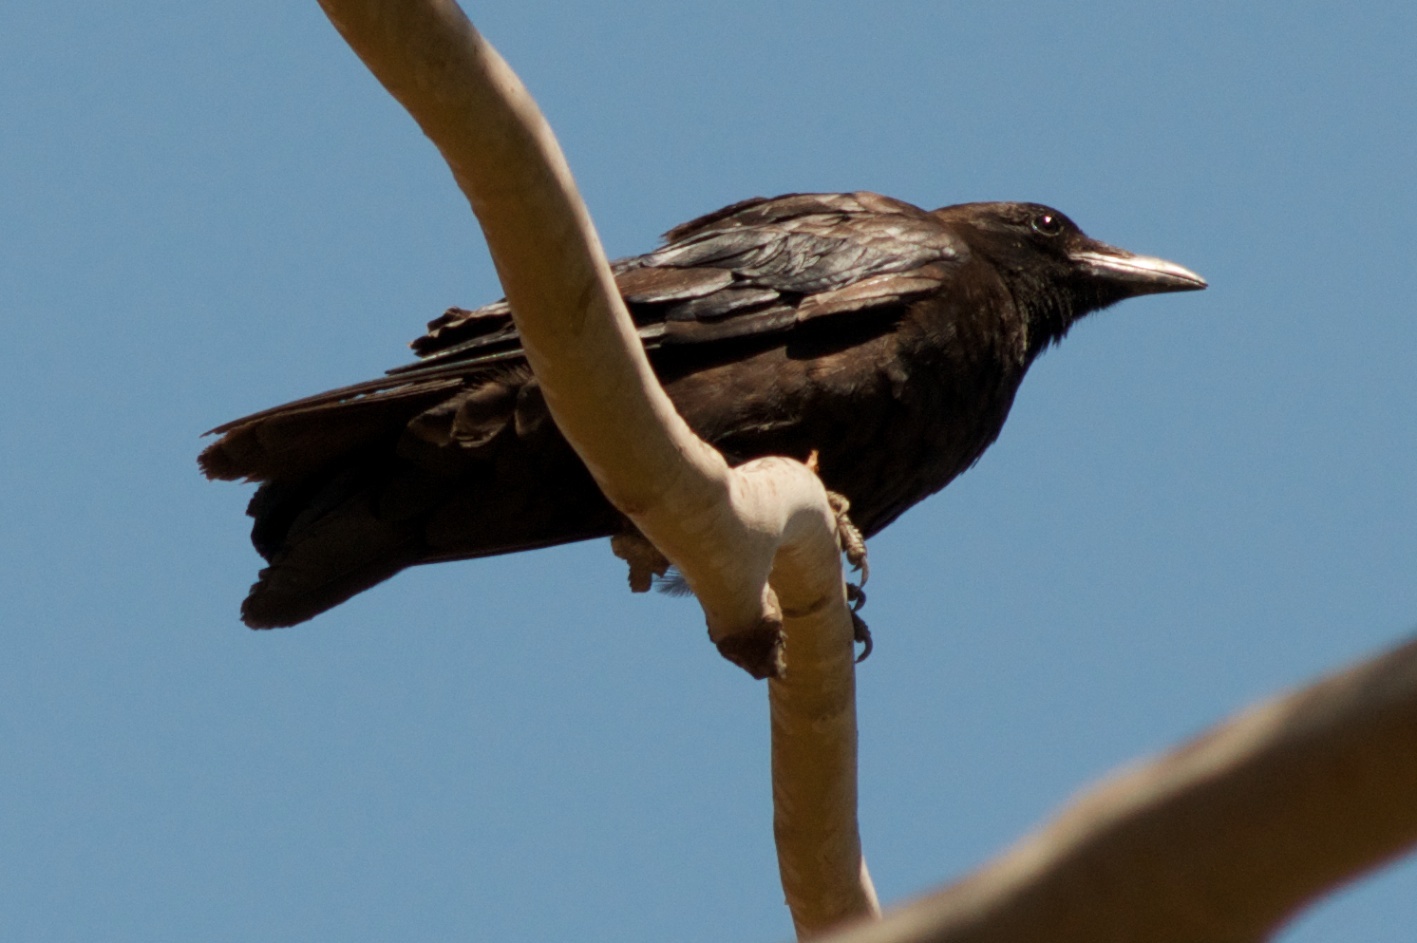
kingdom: Animalia
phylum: Chordata
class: Aves
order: Passeriformes
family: Corvidae
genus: Corvus
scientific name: Corvus brachyrhynchos
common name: American crow
